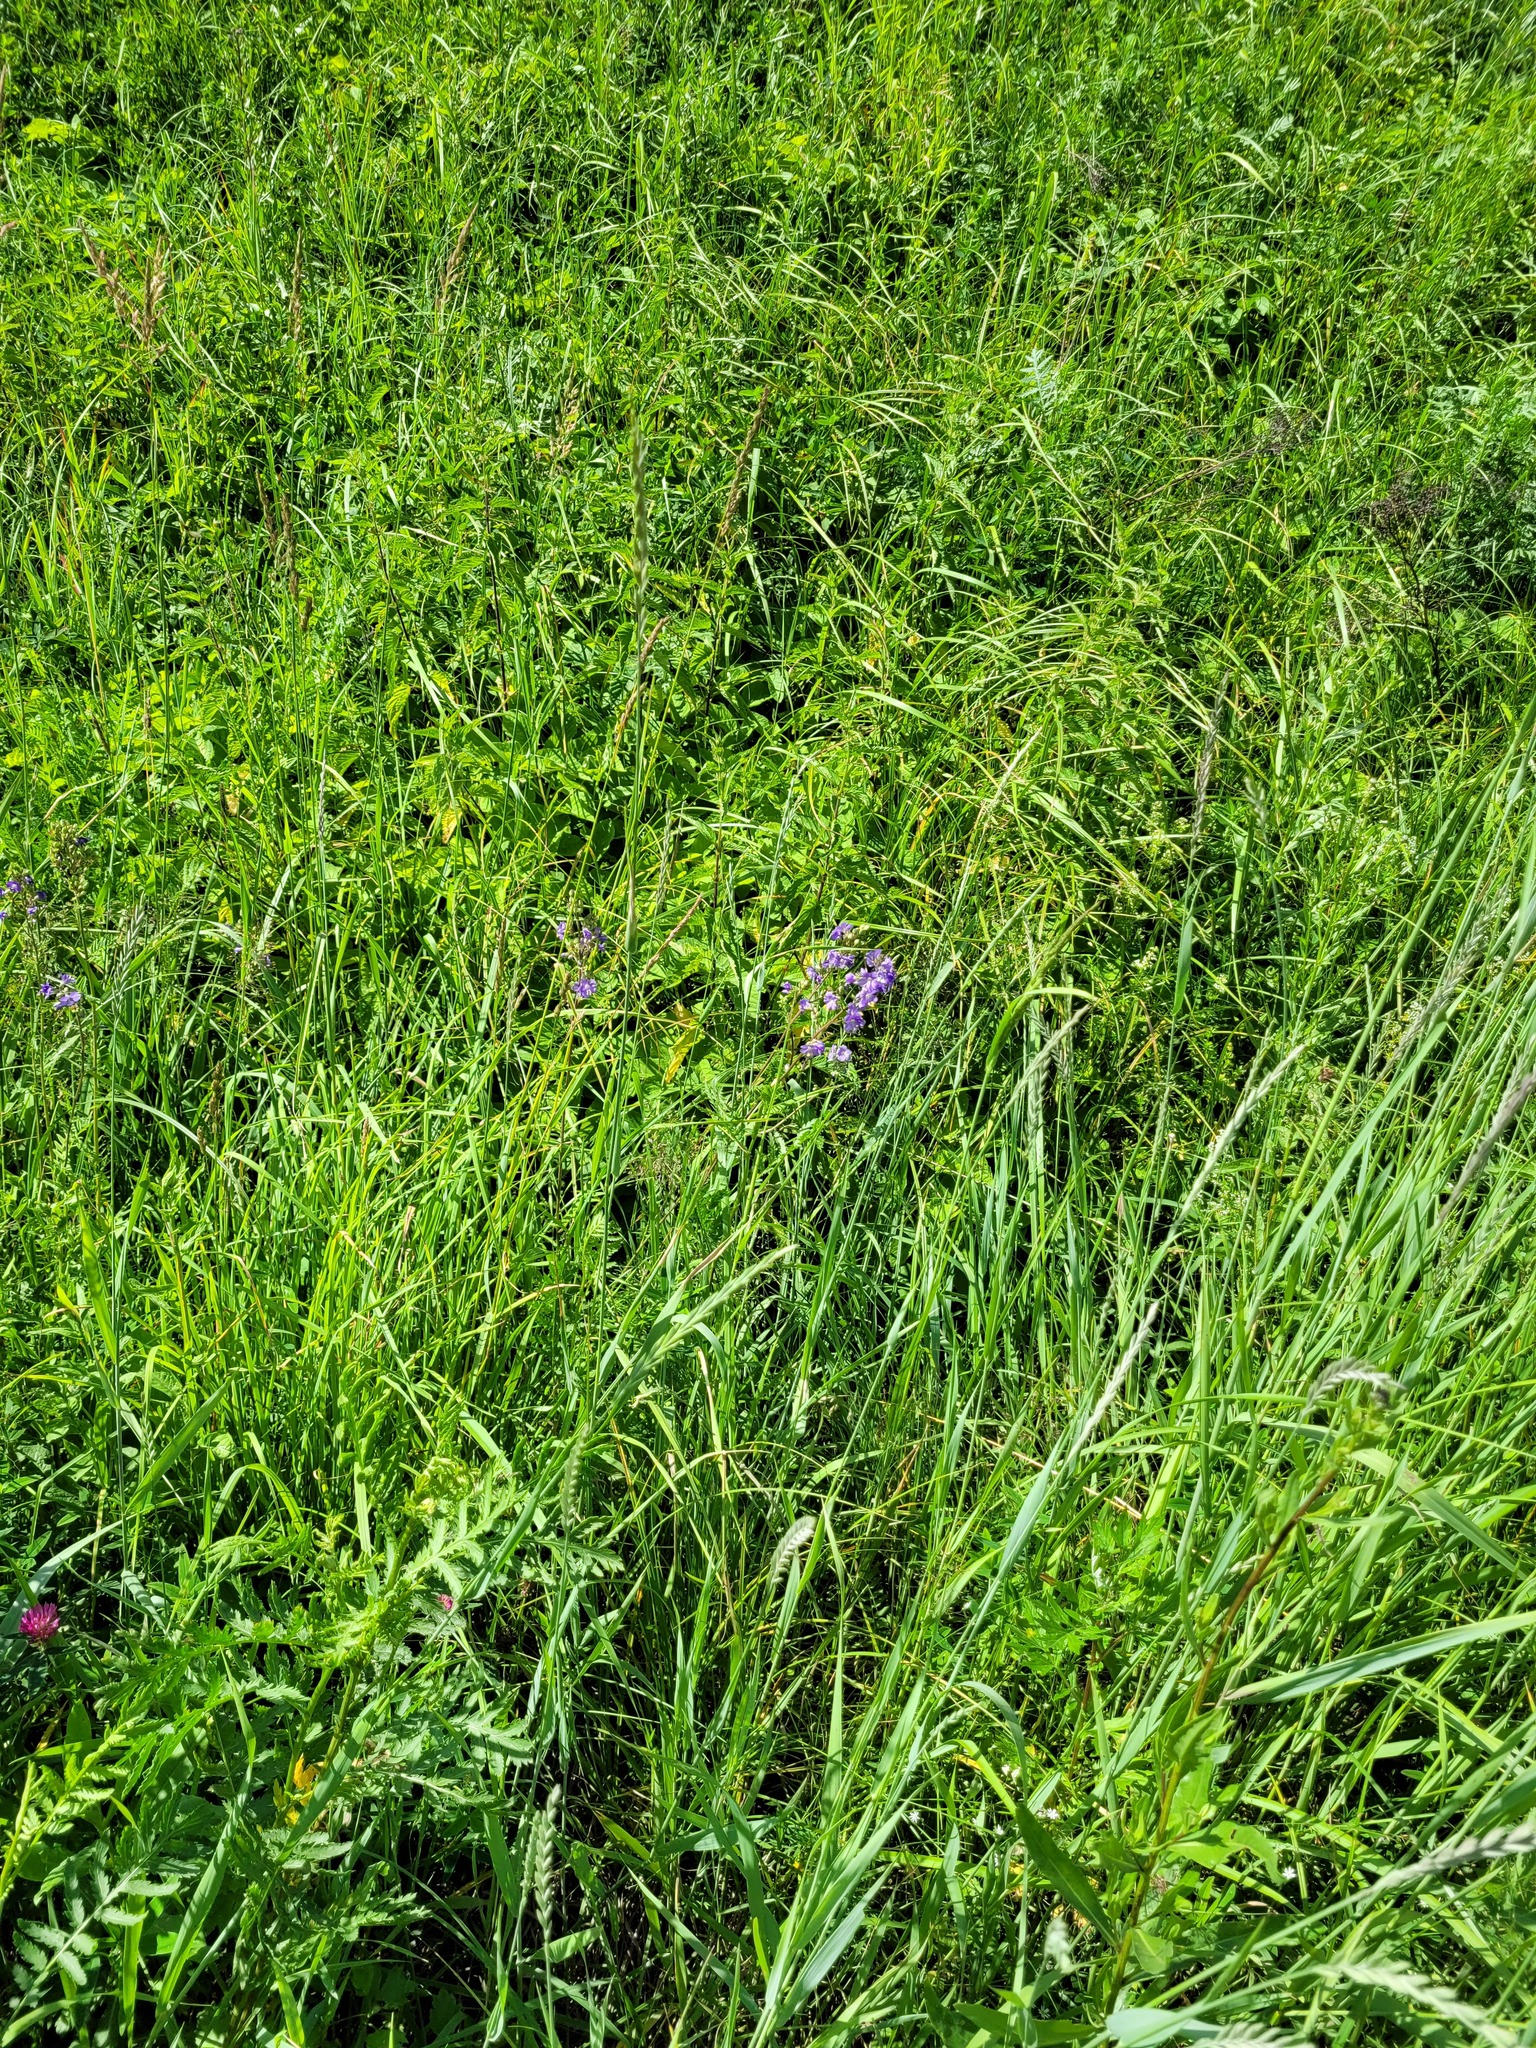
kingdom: Plantae
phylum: Tracheophyta
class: Magnoliopsida
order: Ericales
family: Polemoniaceae
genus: Polemonium
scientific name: Polemonium caeruleum
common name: Jacob's-ladder
